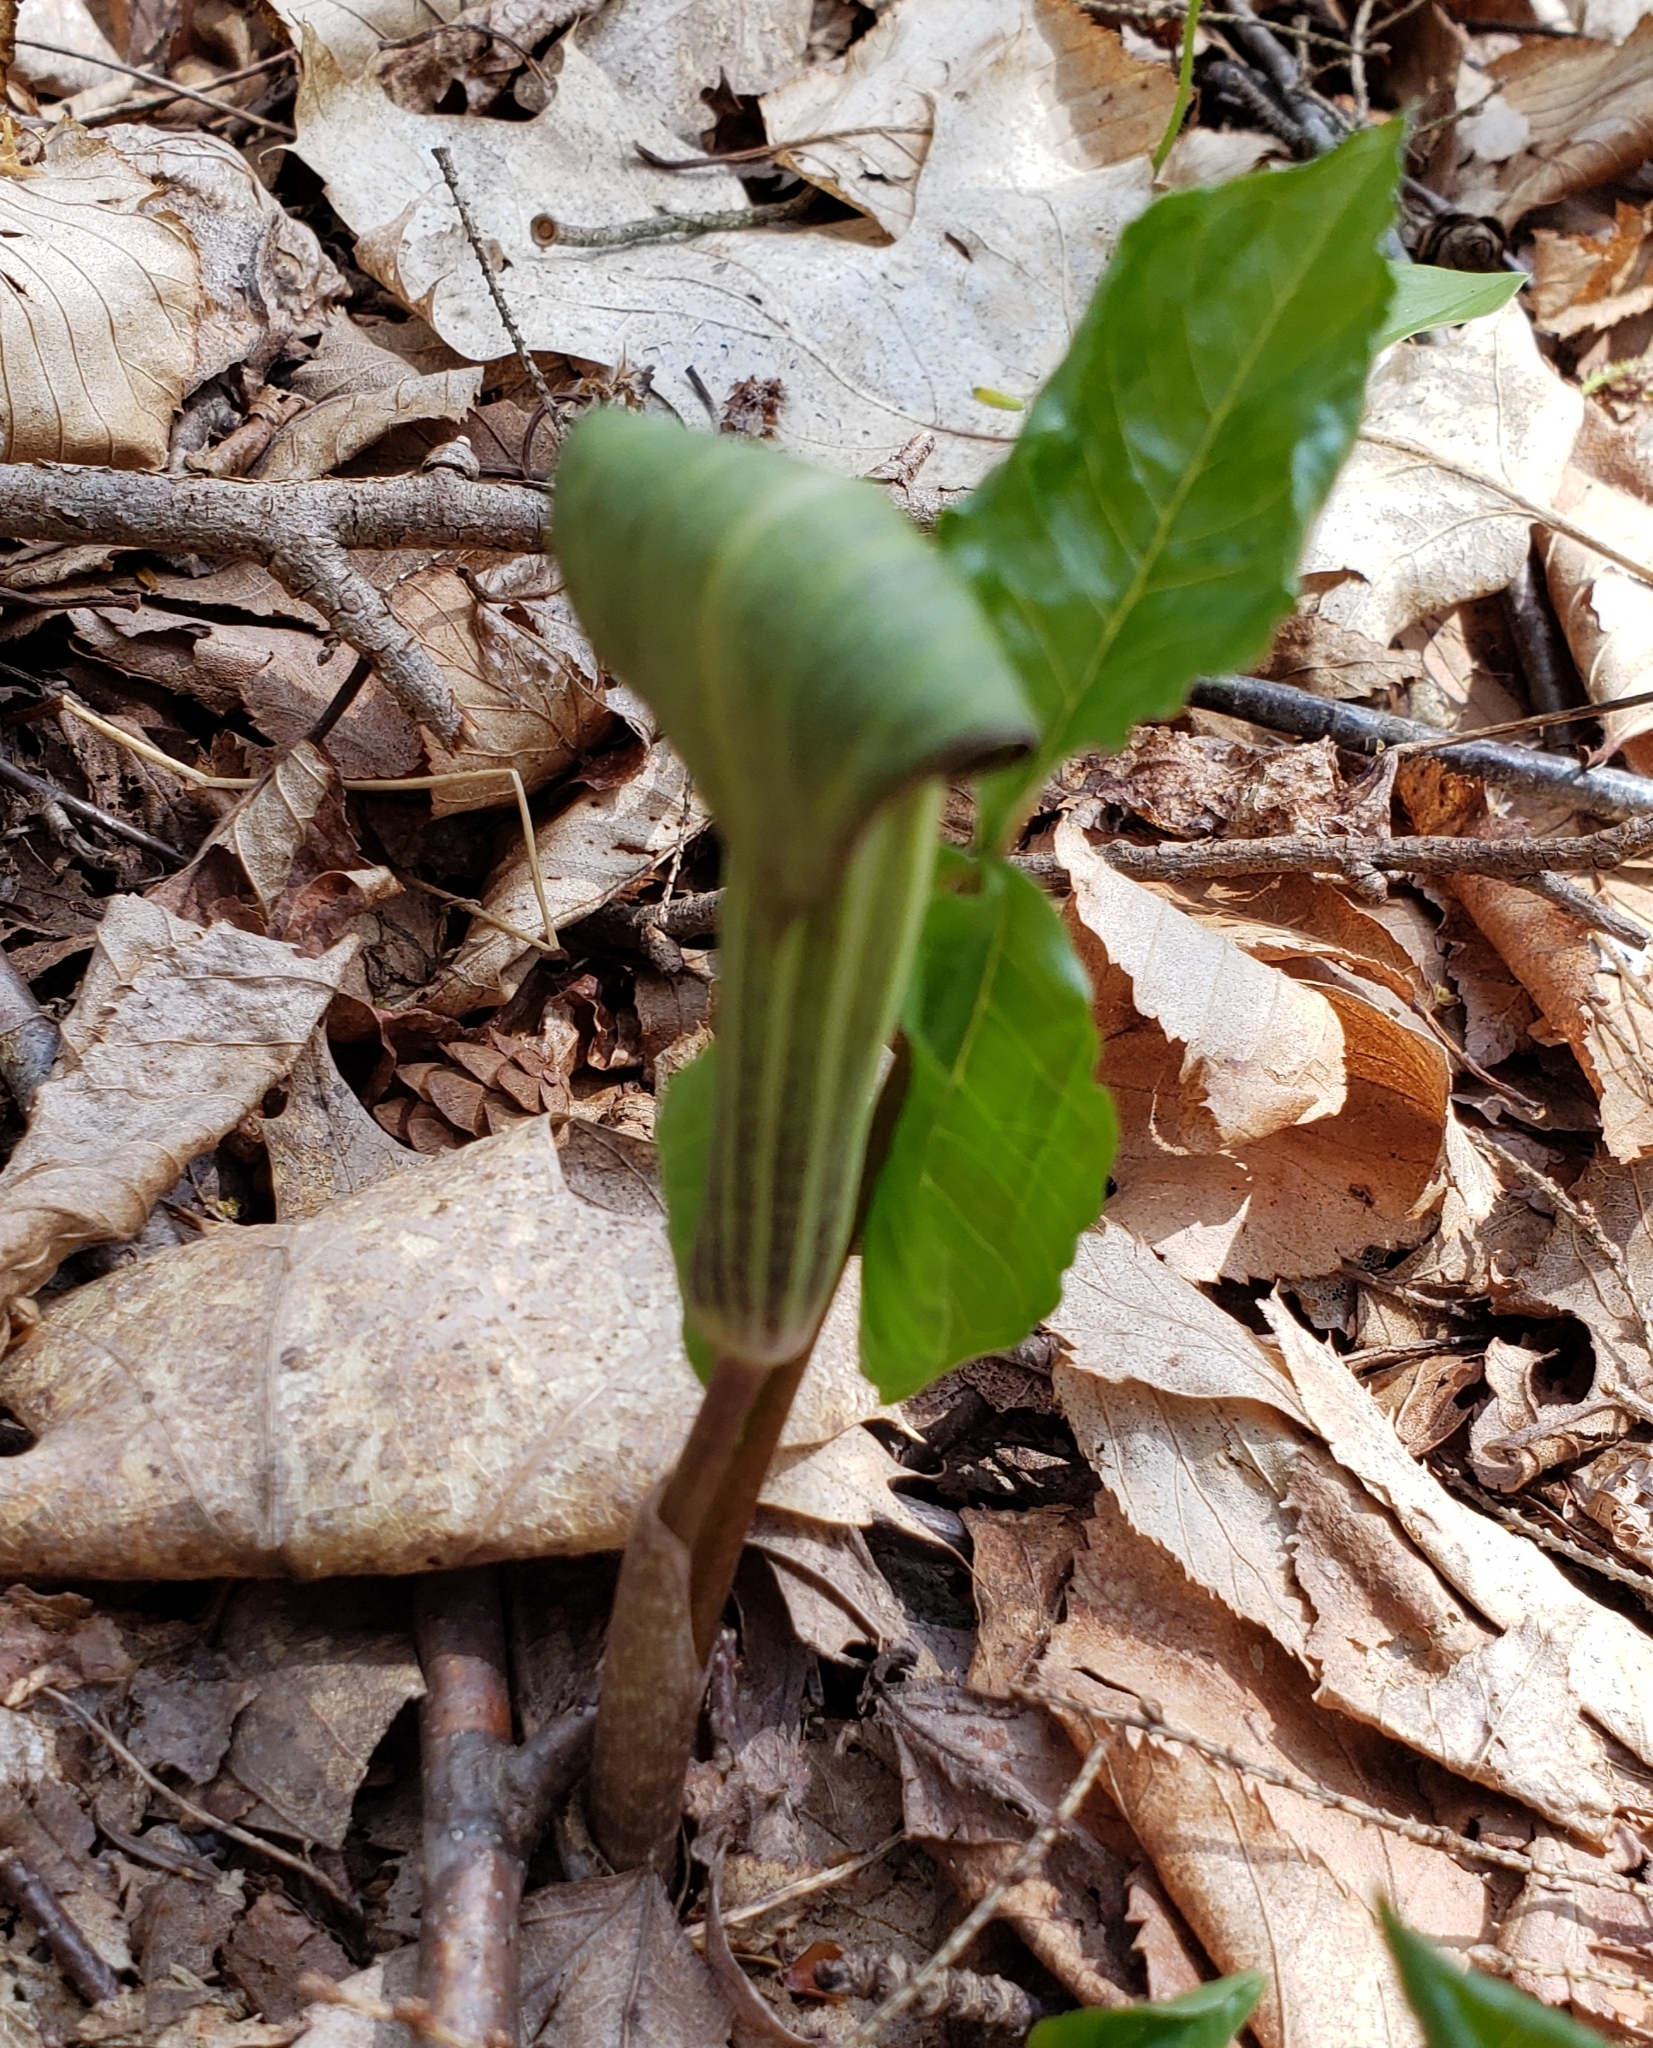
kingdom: Plantae
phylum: Tracheophyta
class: Liliopsida
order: Alismatales
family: Araceae
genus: Arisaema
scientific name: Arisaema triphyllum
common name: Jack-in-the-pulpit
